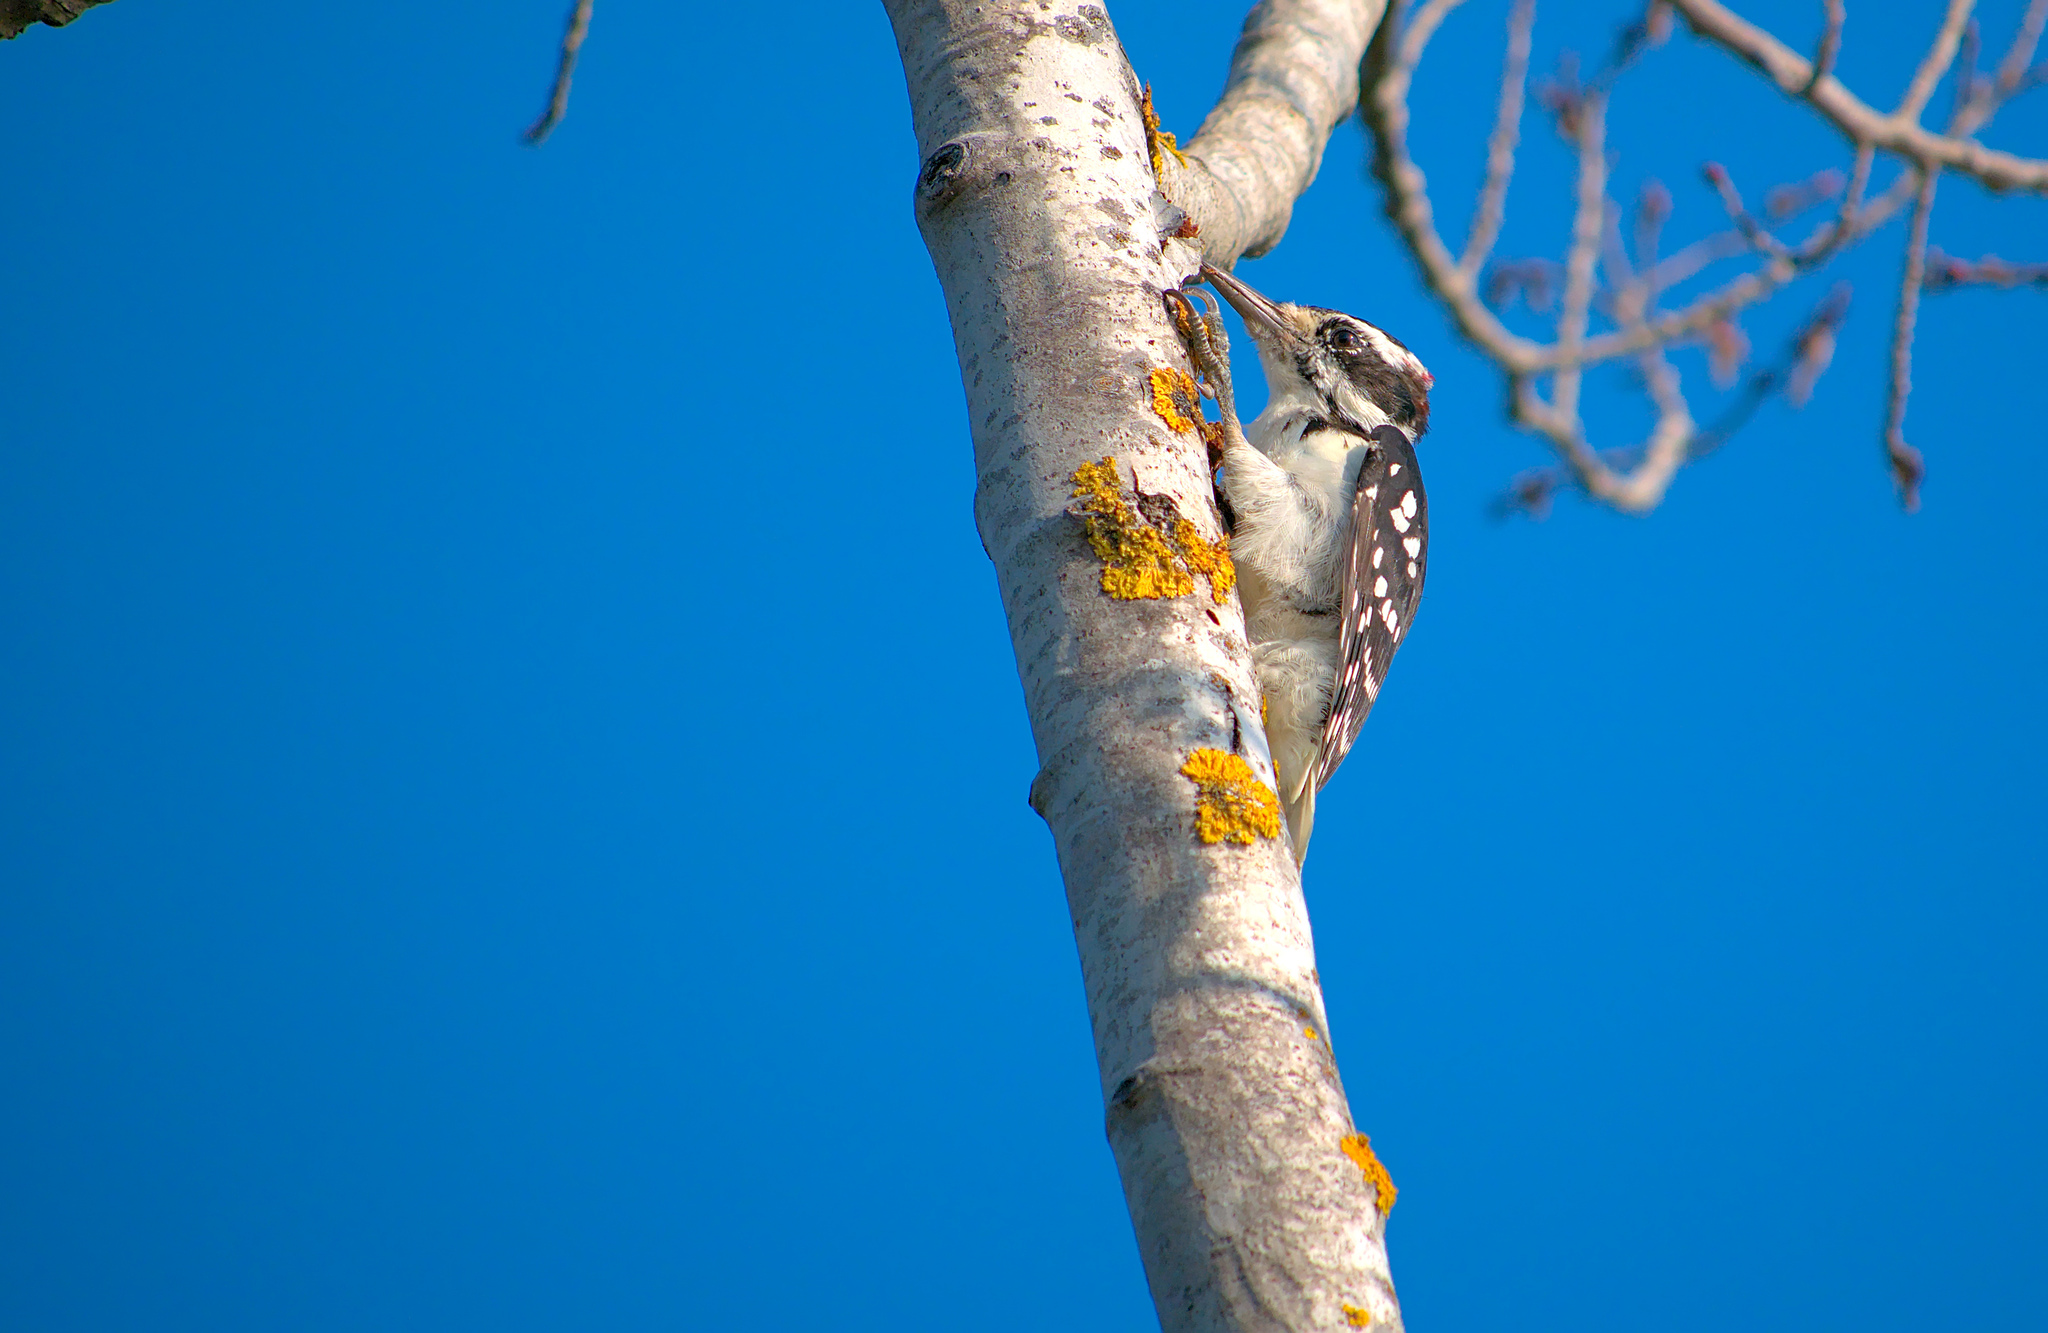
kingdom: Animalia
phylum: Chordata
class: Aves
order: Piciformes
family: Picidae
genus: Leuconotopicus
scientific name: Leuconotopicus villosus
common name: Hairy woodpecker
